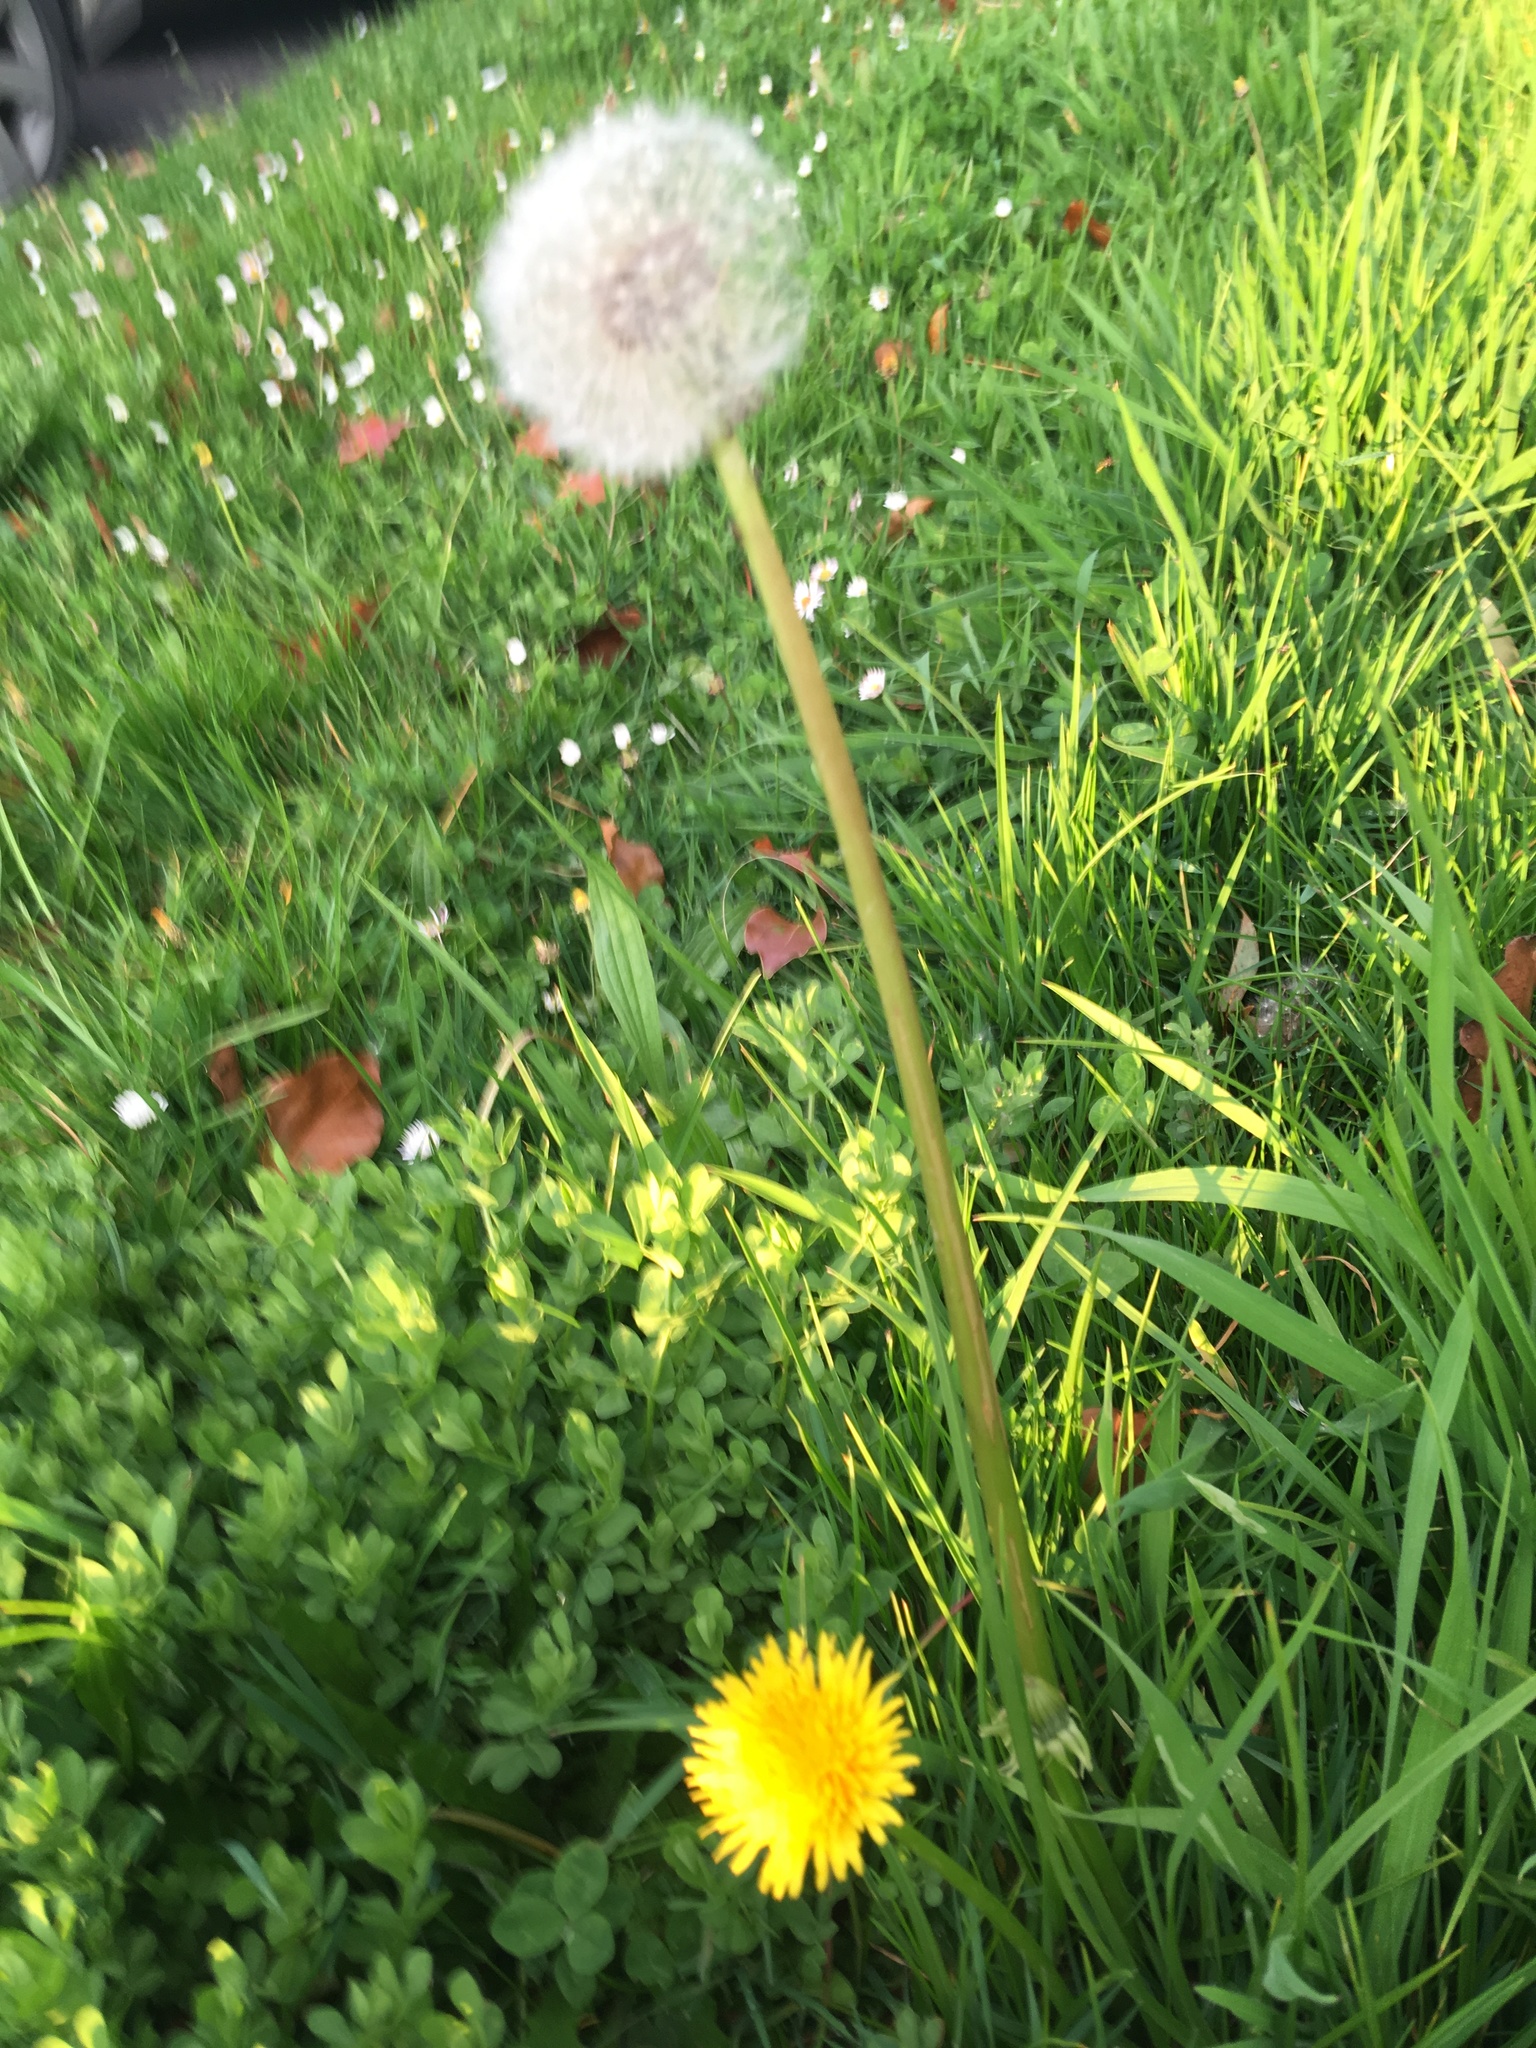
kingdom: Plantae
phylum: Tracheophyta
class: Magnoliopsida
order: Asterales
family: Asteraceae
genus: Taraxacum
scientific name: Taraxacum officinale
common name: Common dandelion
